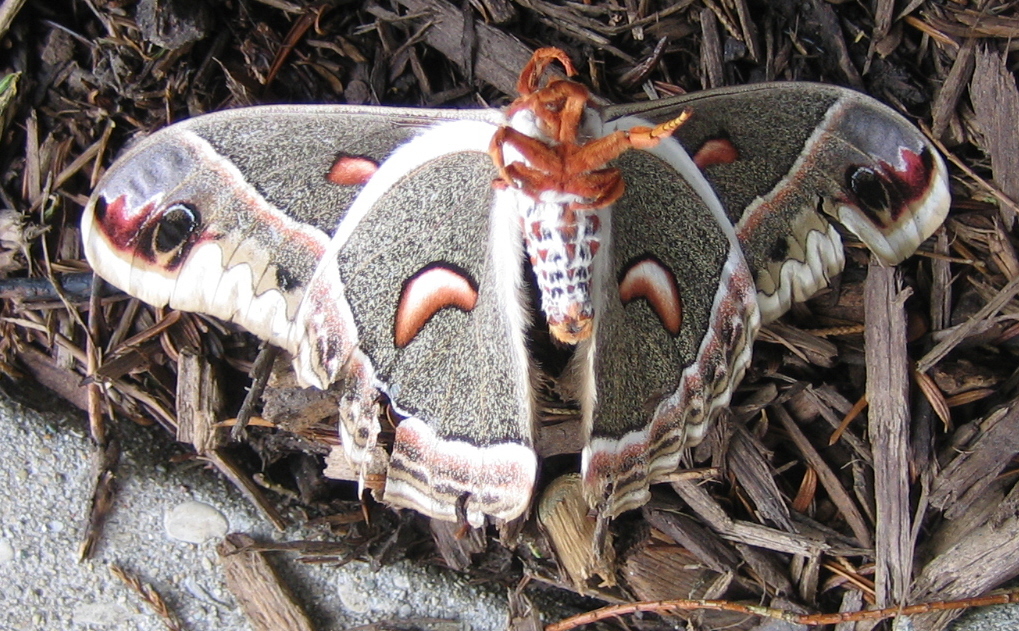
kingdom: Animalia
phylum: Arthropoda
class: Insecta
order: Lepidoptera
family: Saturniidae
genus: Hyalophora
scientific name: Hyalophora cecropia
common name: Cecropia silkmoth
